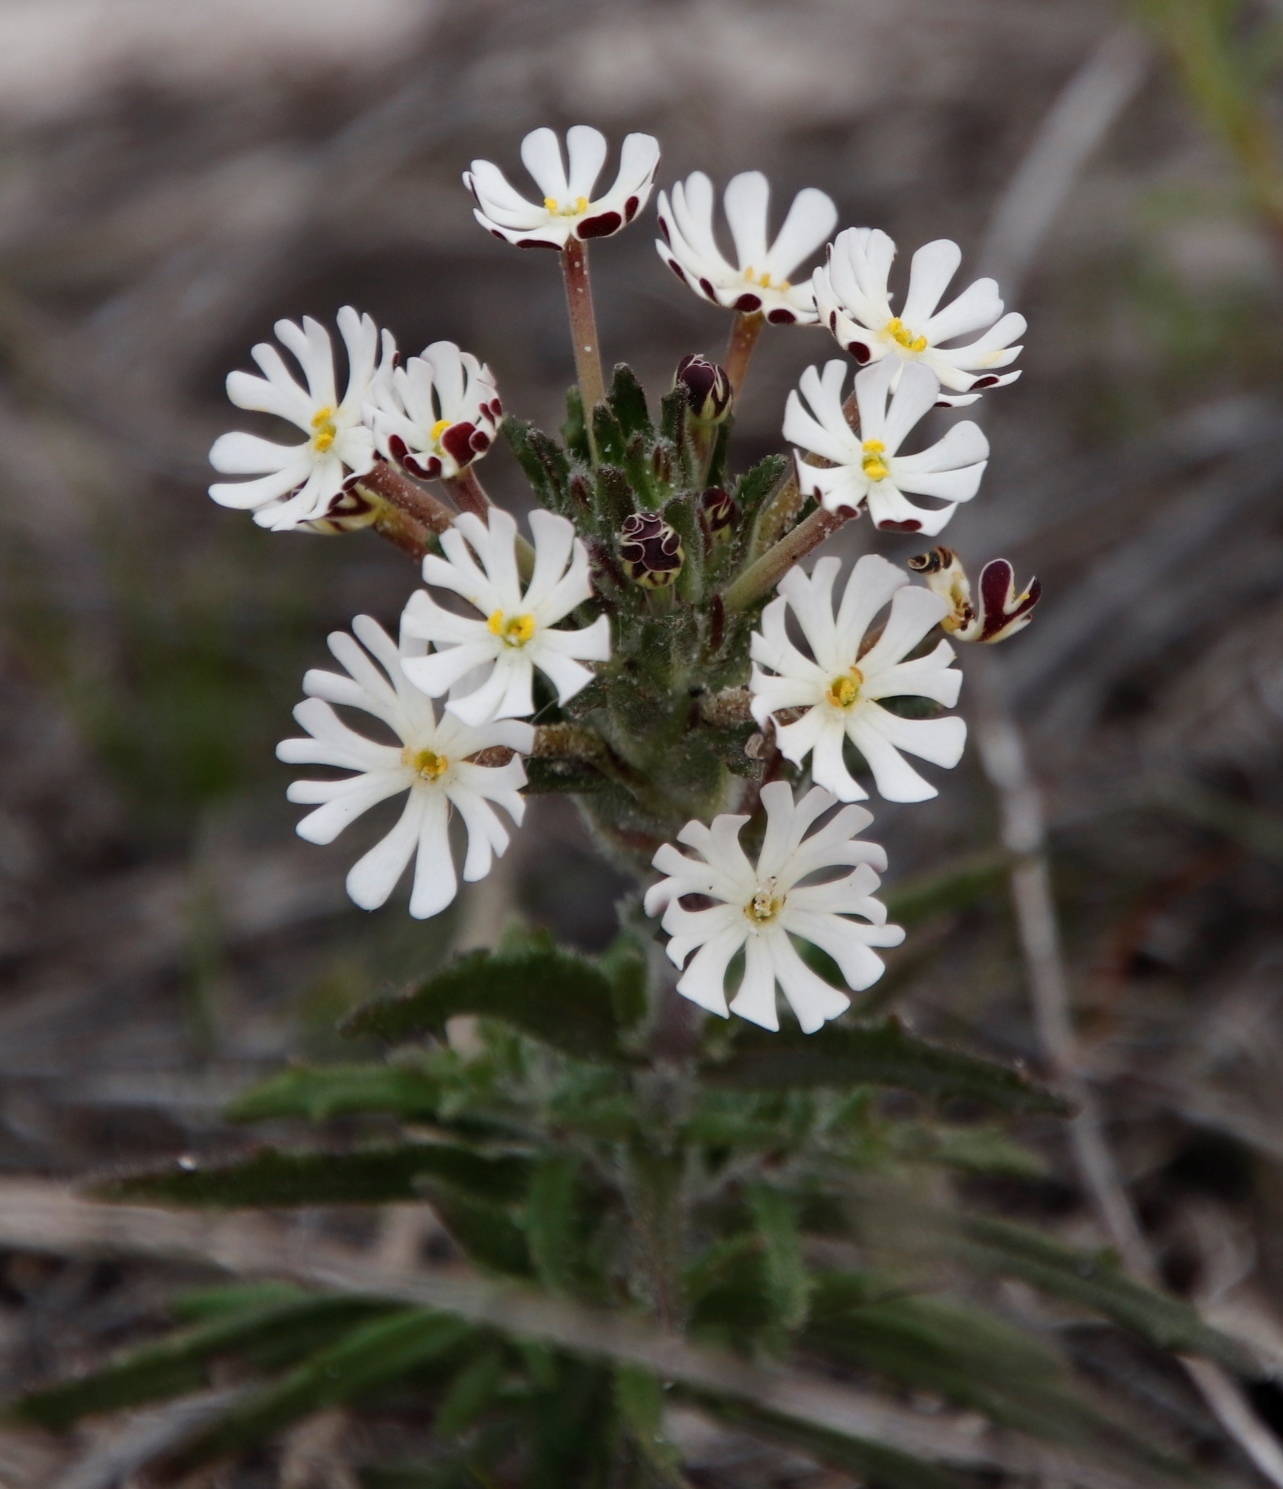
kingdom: Plantae
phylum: Tracheophyta
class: Magnoliopsida
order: Lamiales
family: Scrophulariaceae
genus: Zaluzianskya
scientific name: Zaluzianskya capensis
